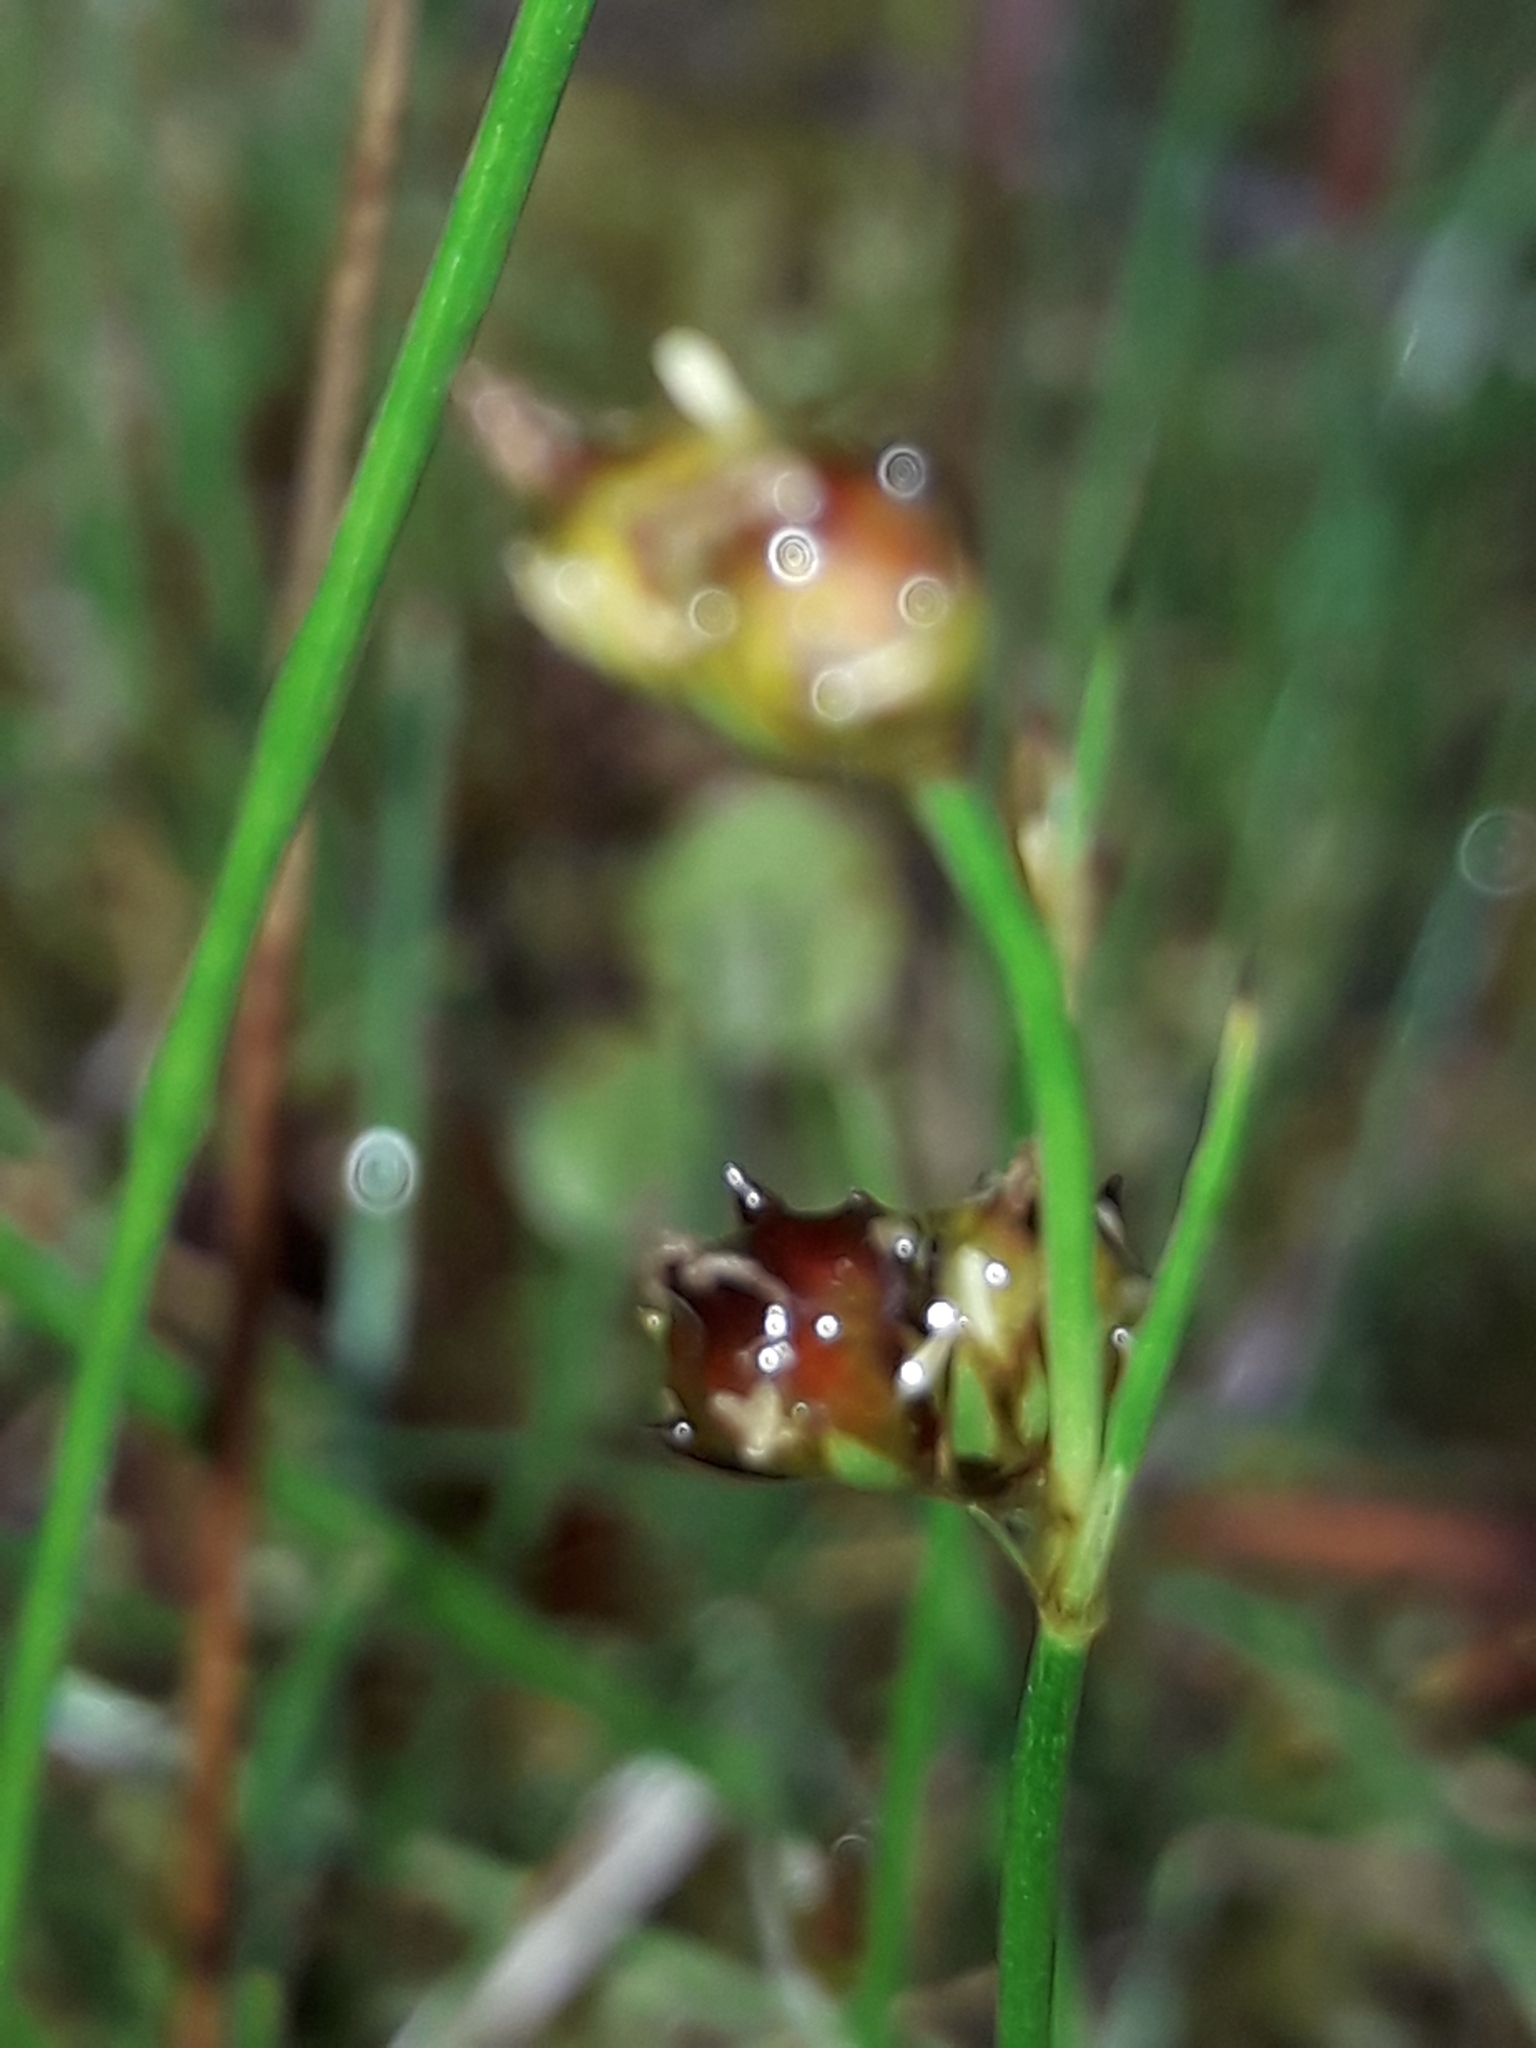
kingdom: Plantae
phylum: Tracheophyta
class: Liliopsida
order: Poales
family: Juncaceae
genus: Juncus
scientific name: Juncus novae-zelandiae
